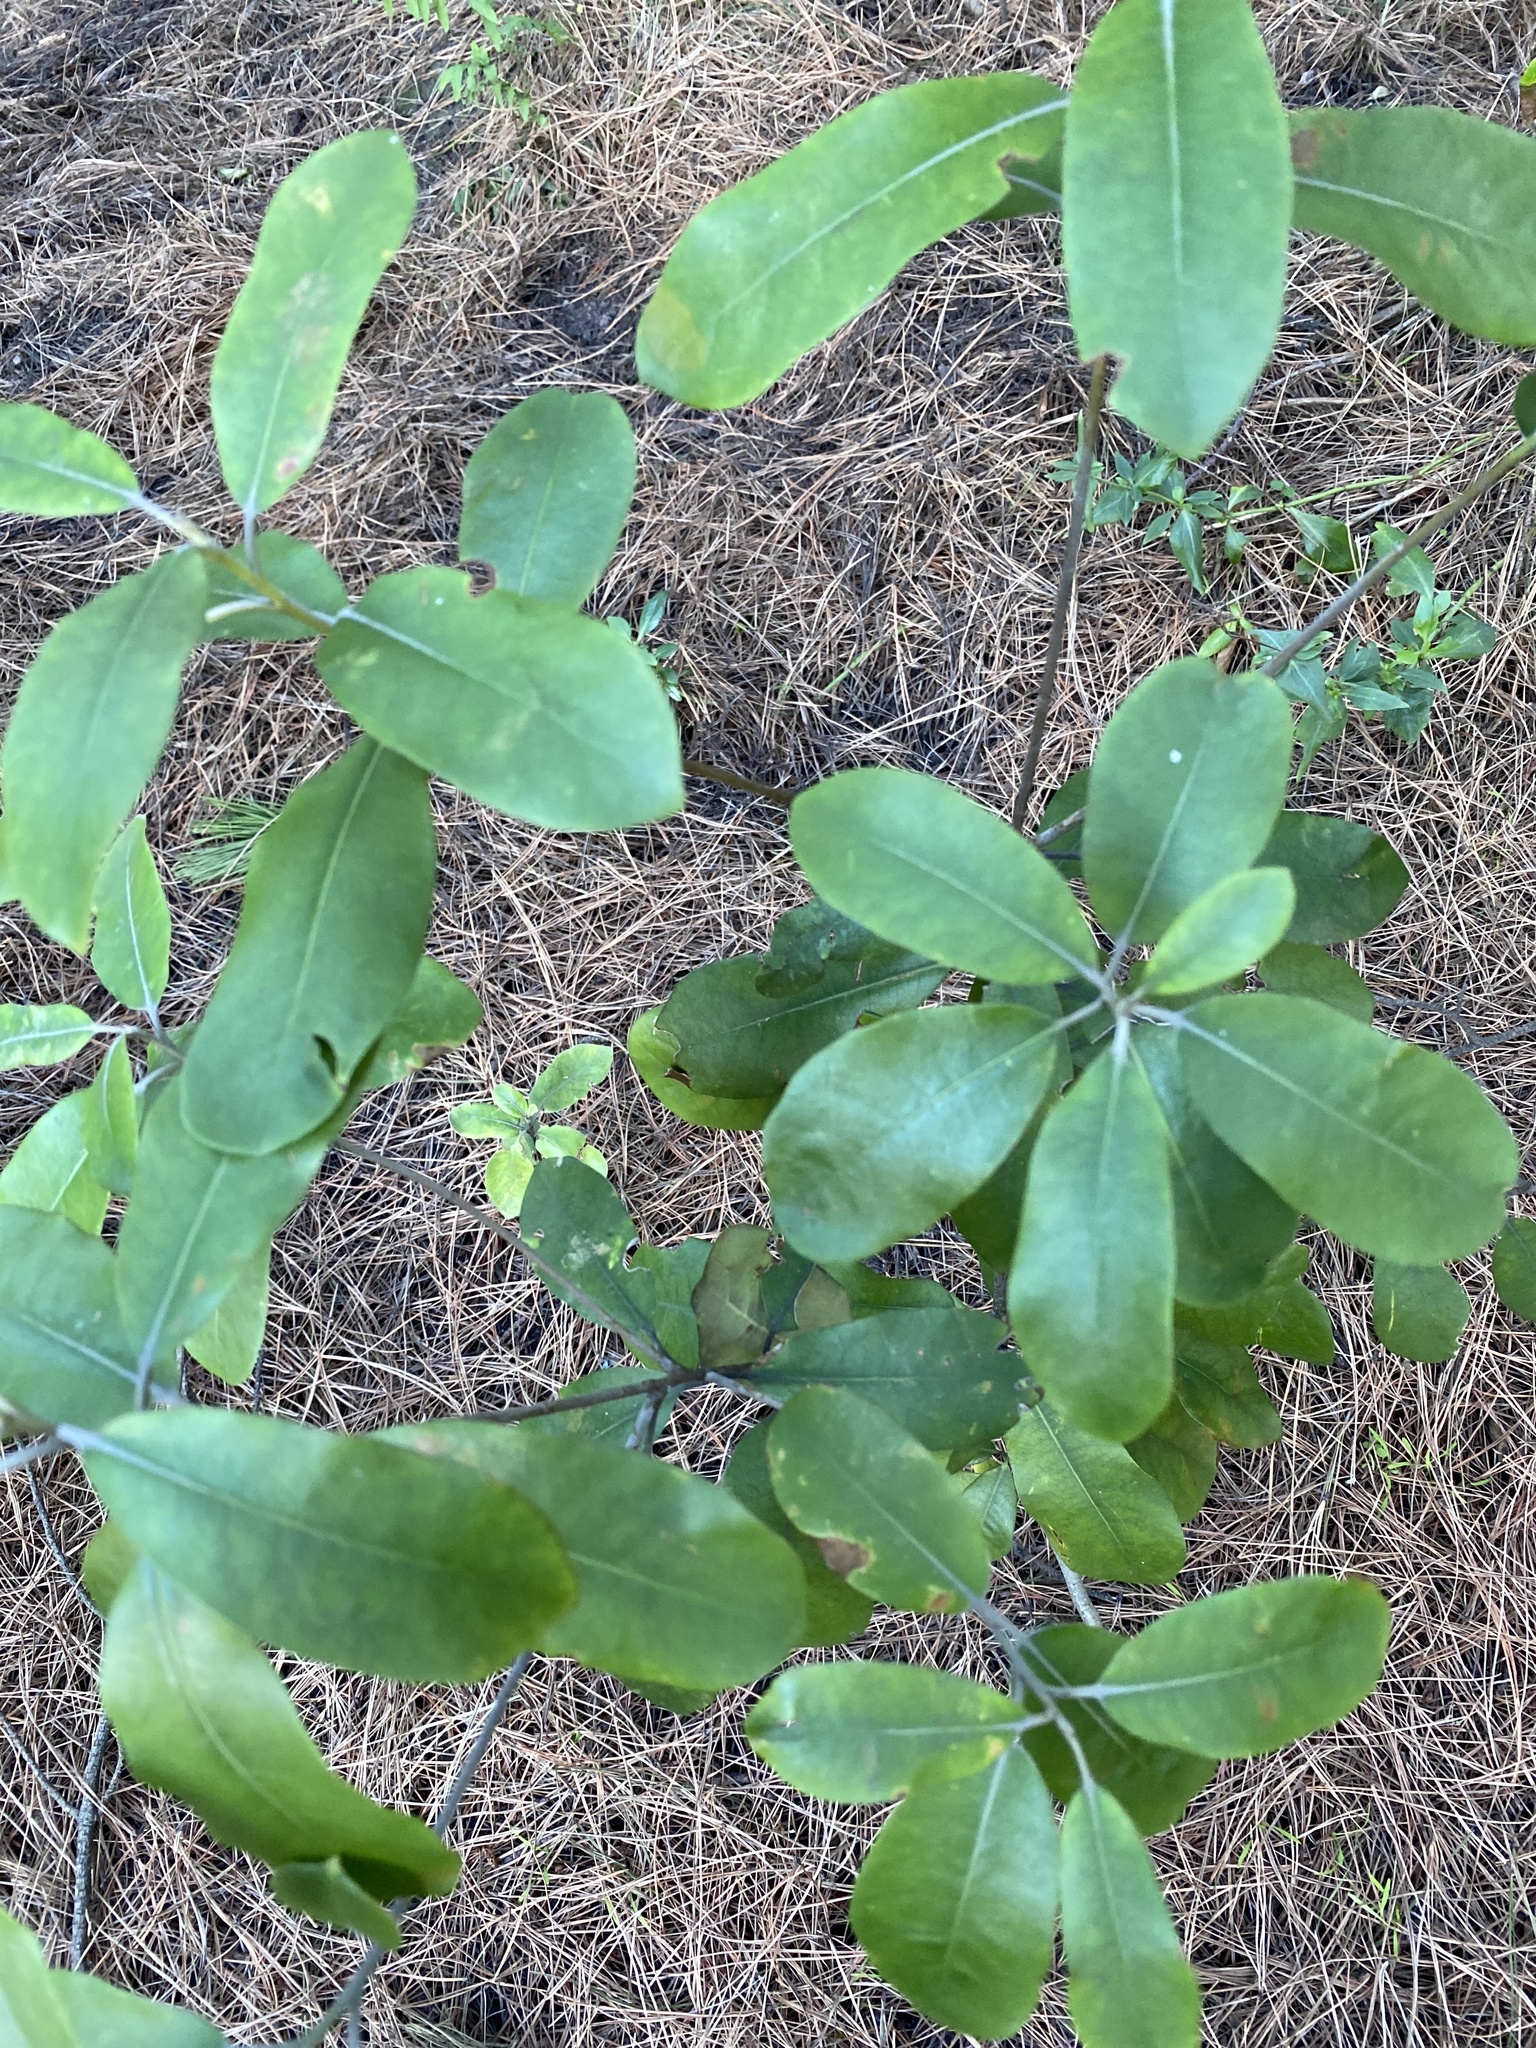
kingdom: Plantae
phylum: Tracheophyta
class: Magnoliopsida
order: Apiales
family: Pittosporaceae
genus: Pittosporum
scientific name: Pittosporum ralphii
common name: Ralph's desertwillow
